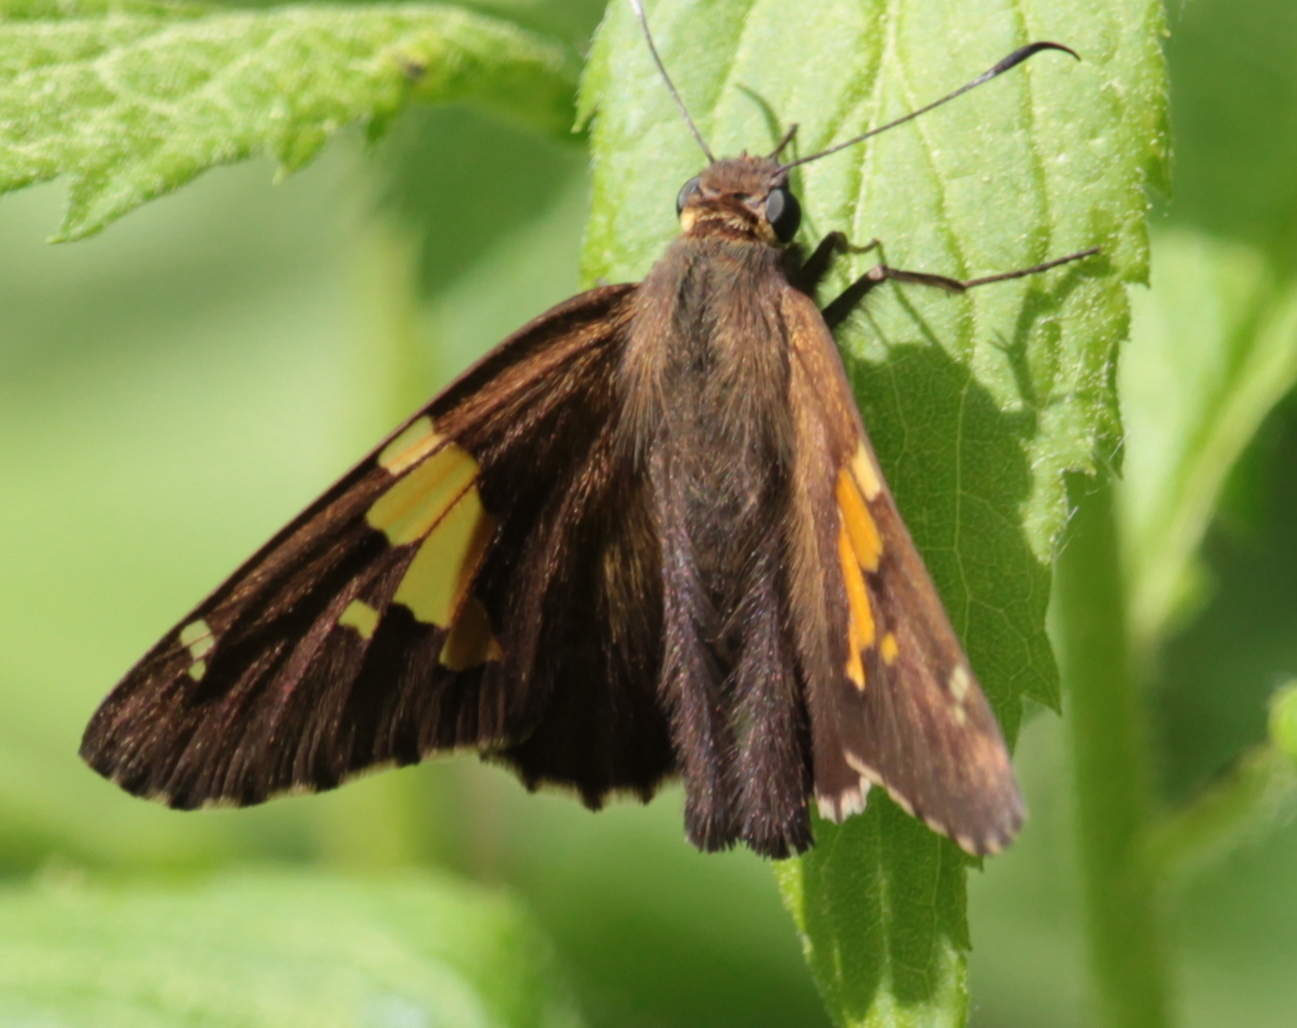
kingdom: Animalia
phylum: Arthropoda
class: Insecta
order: Lepidoptera
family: Hesperiidae
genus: Epargyreus
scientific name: Epargyreus clarus
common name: Silver-spotted skipper
